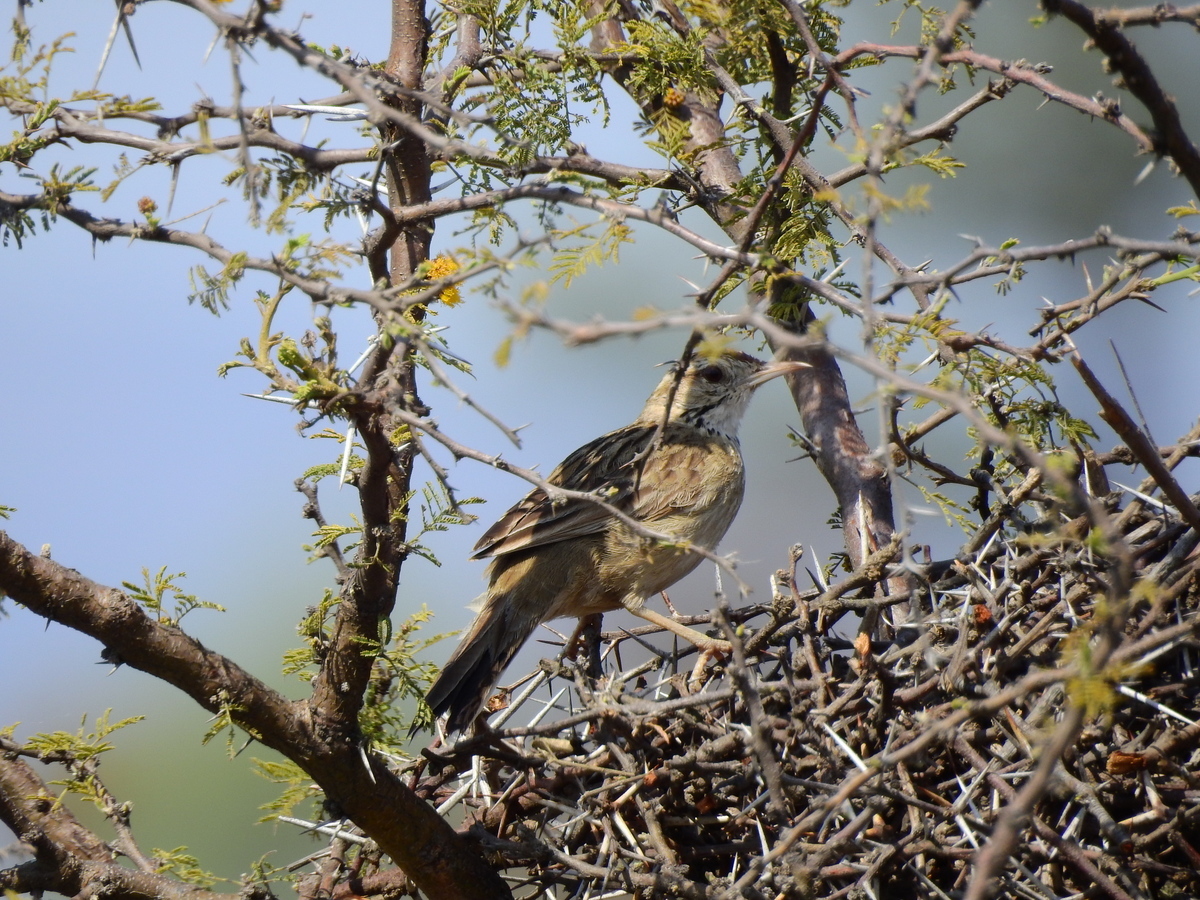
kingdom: Animalia
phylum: Chordata
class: Aves
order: Passeriformes
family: Furnariidae
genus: Anumbius
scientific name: Anumbius annumbi
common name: Firewood-gatherer
